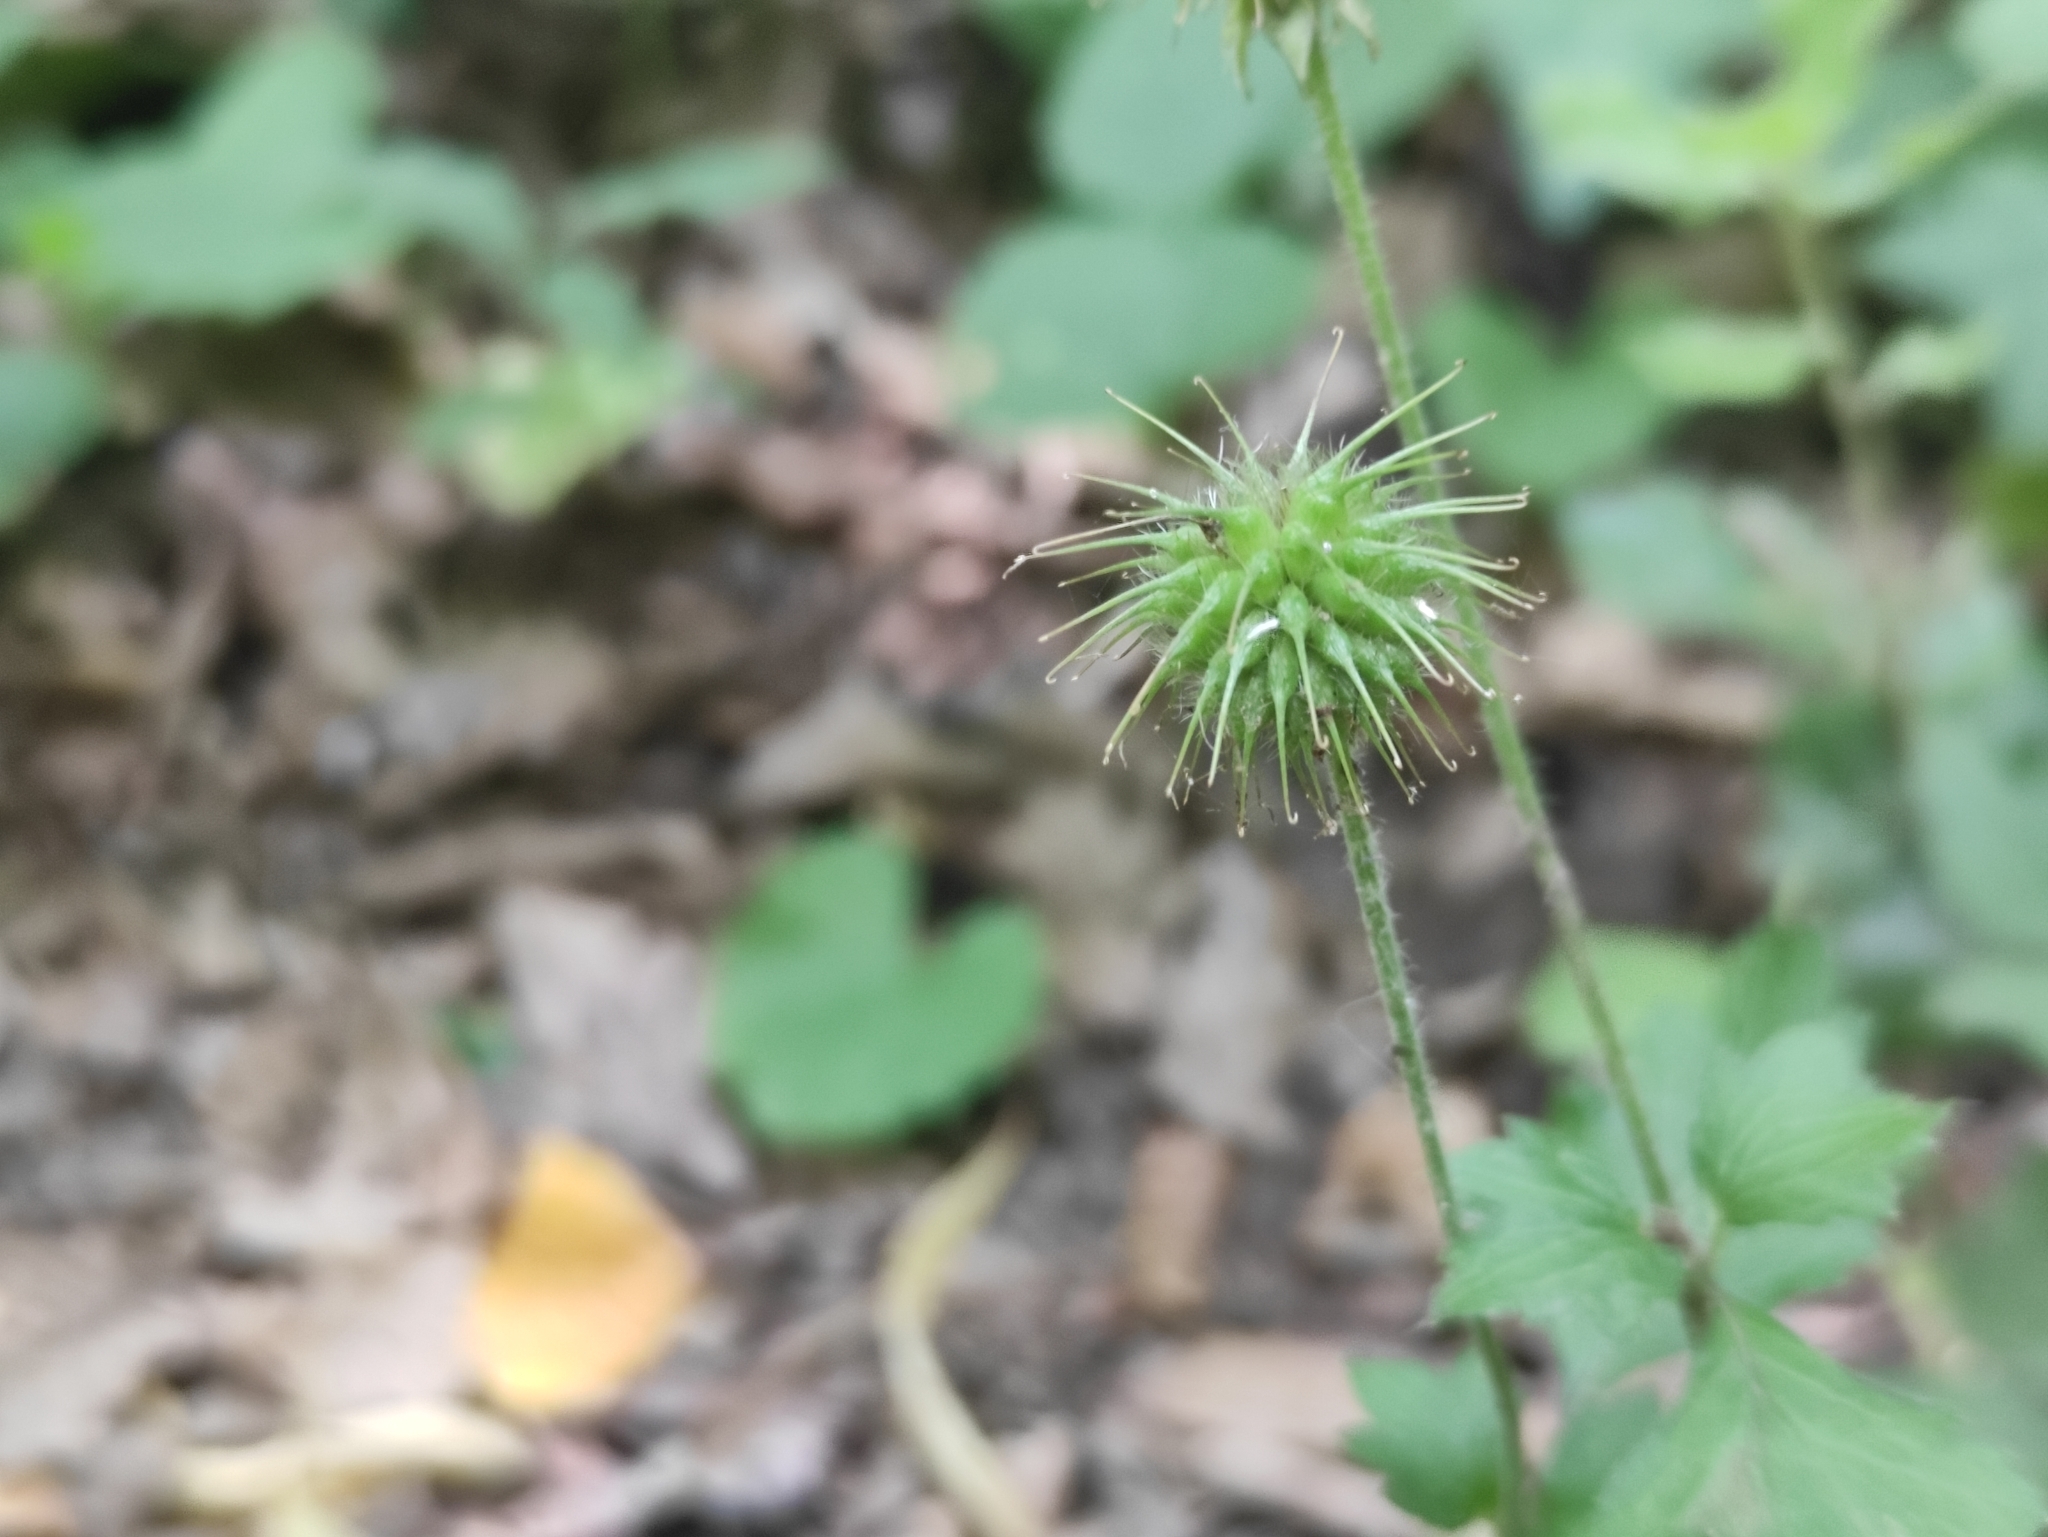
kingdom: Plantae
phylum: Tracheophyta
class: Magnoliopsida
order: Rosales
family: Rosaceae
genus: Geum
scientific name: Geum urbanum
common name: Wood avens
